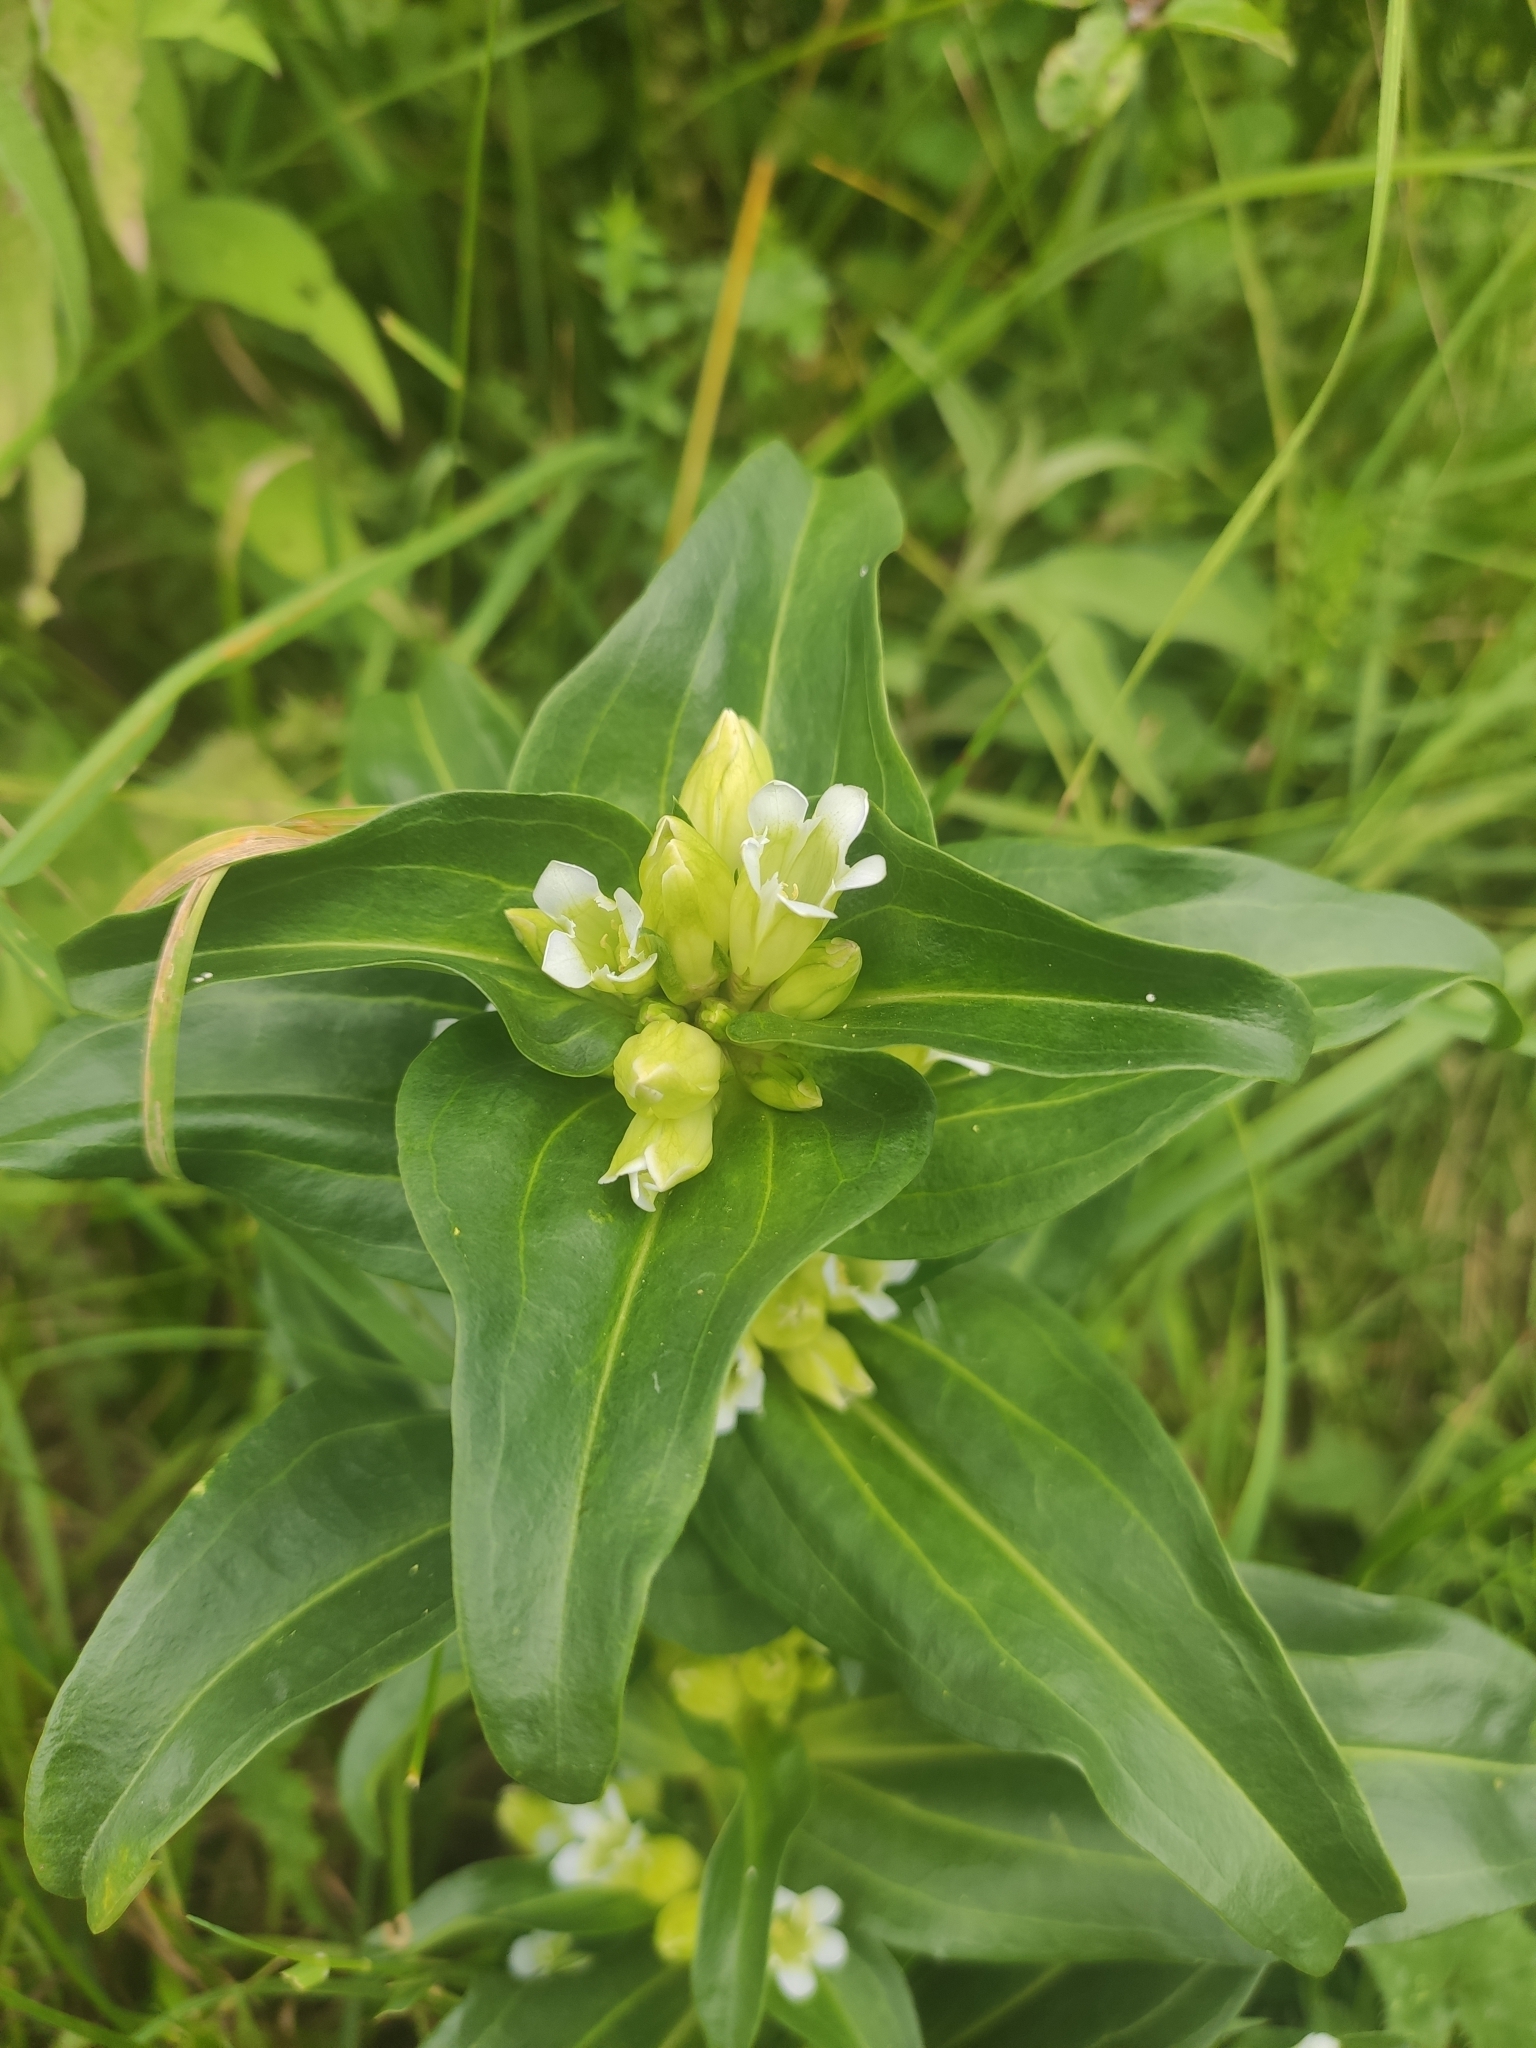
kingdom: Plantae
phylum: Tracheophyta
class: Magnoliopsida
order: Gentianales
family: Gentianaceae
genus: Gentiana
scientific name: Gentiana cruciata
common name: Cross gentian
